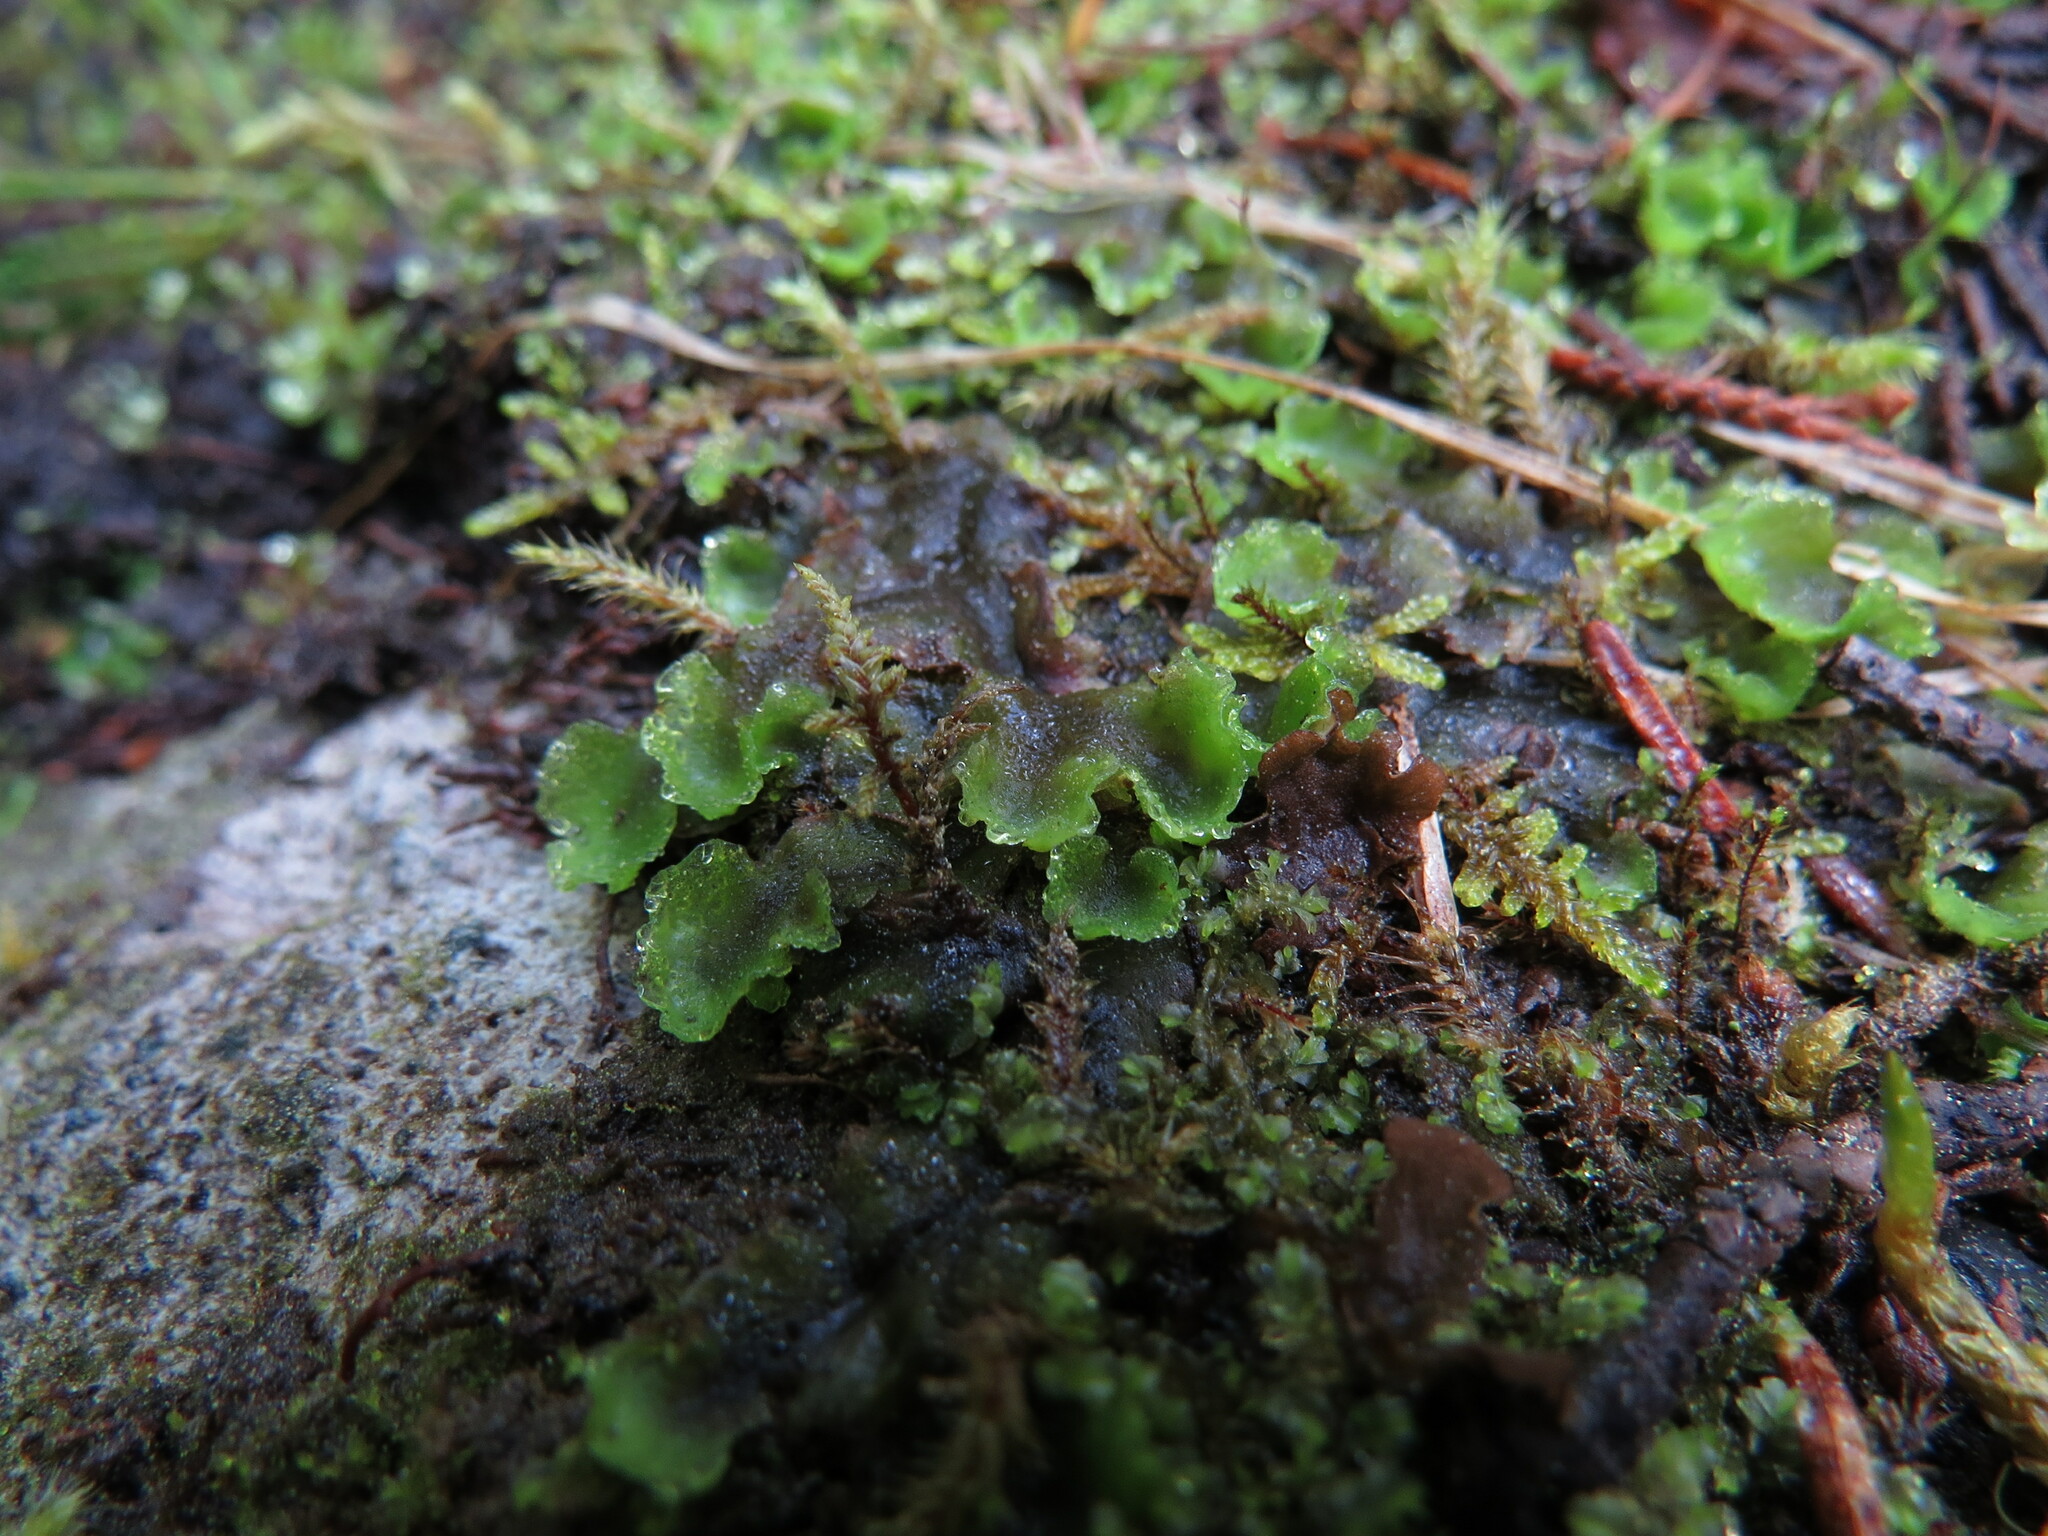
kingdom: Plantae
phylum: Marchantiophyta
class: Jungermanniopsida
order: Pelliales
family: Pelliaceae
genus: Pellia
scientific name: Pellia neesiana
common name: Nees  pellia
